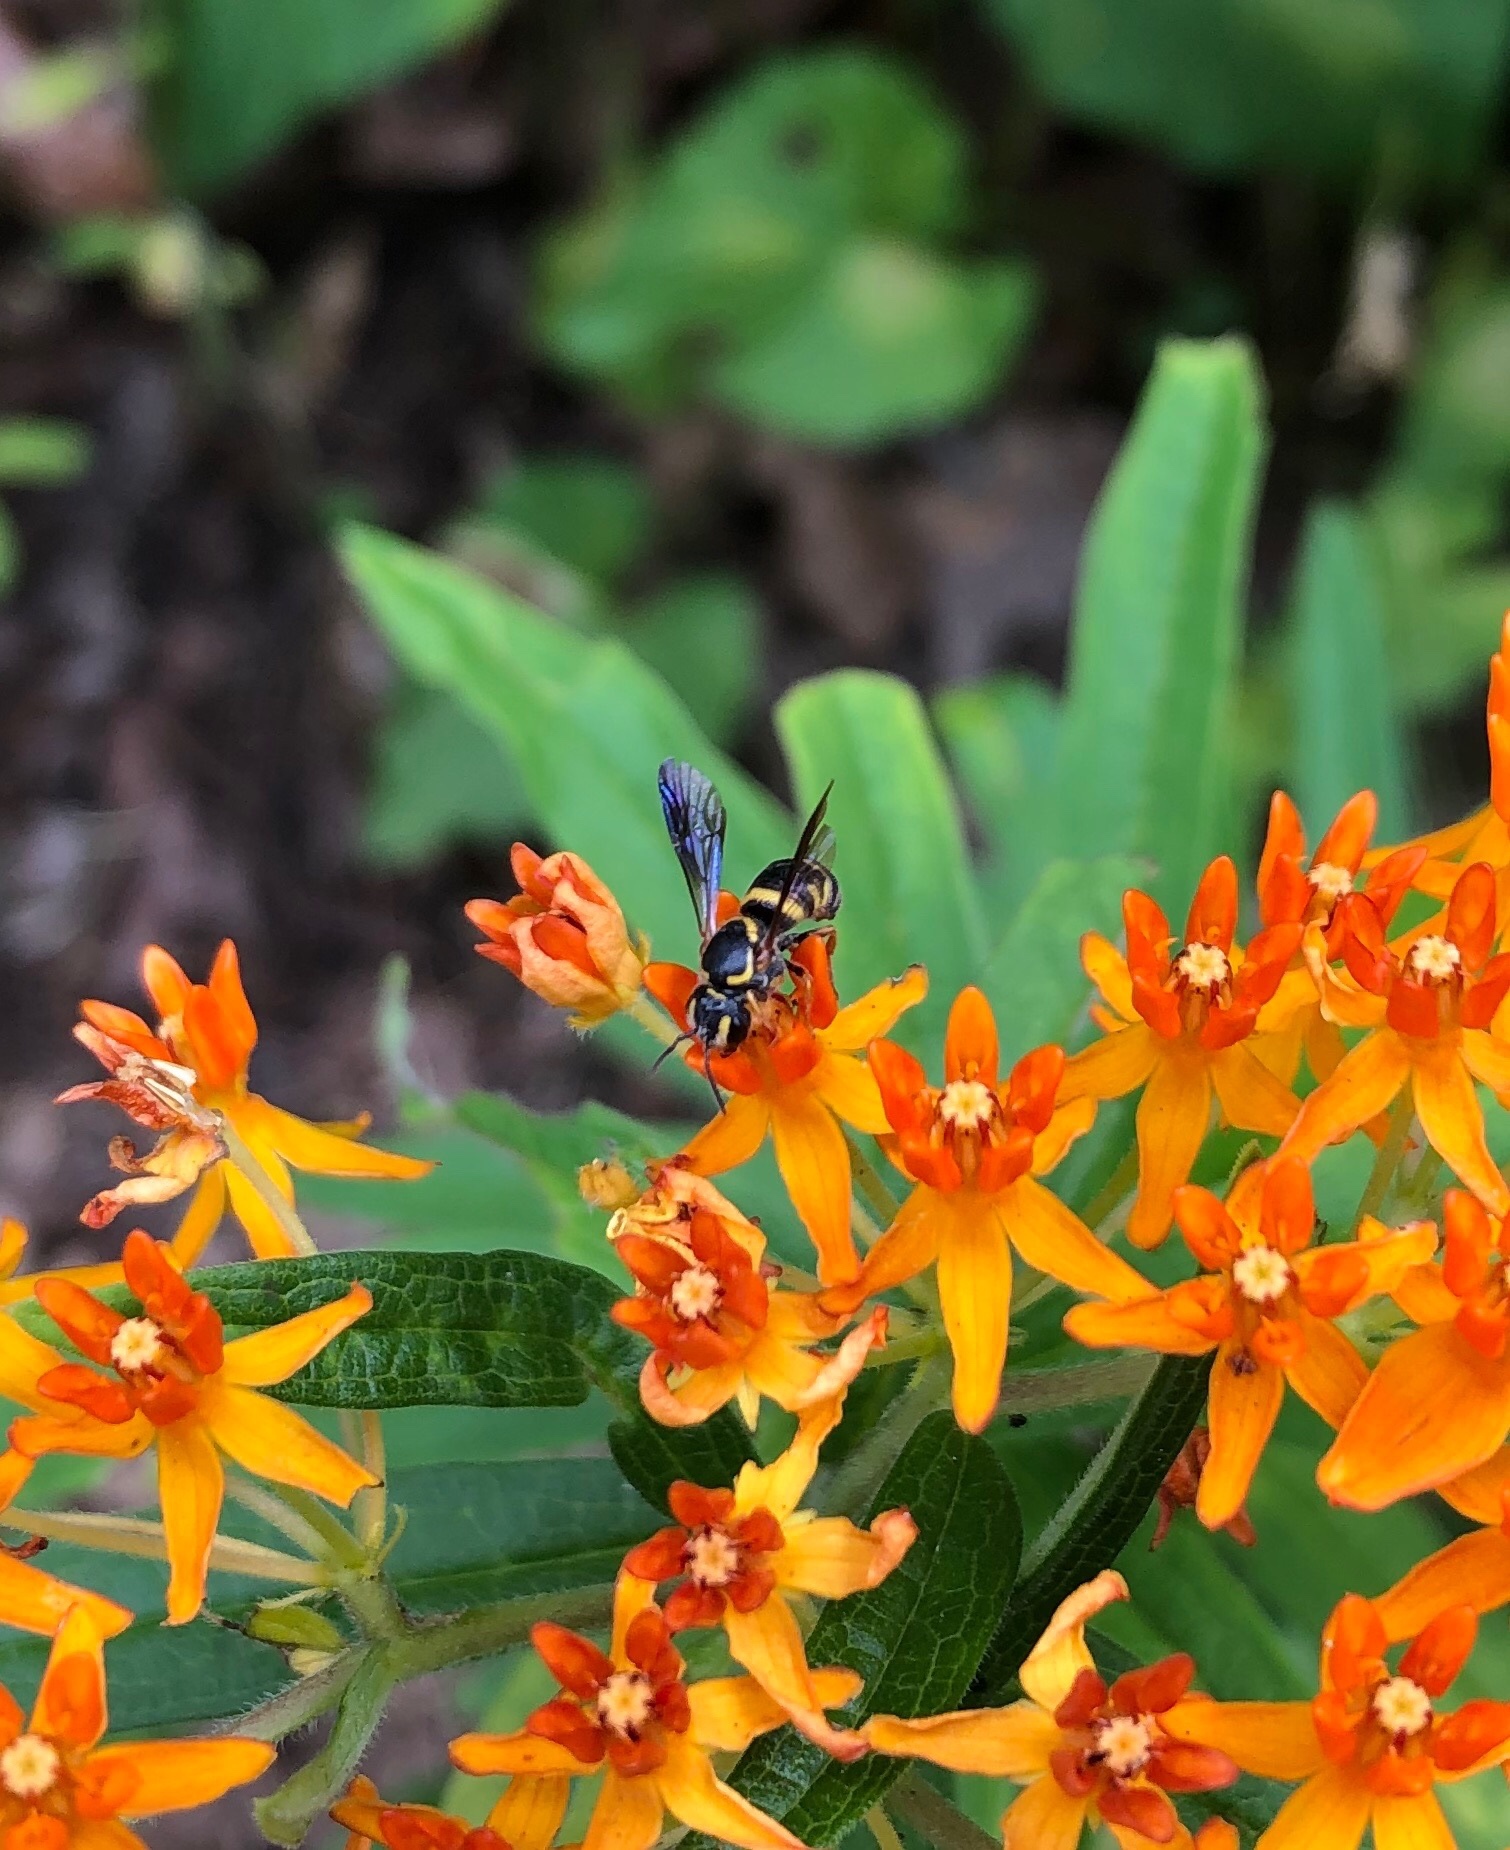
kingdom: Animalia
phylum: Arthropoda
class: Insecta
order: Hymenoptera
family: Megachilidae
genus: Stelis
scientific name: Stelis louisae
